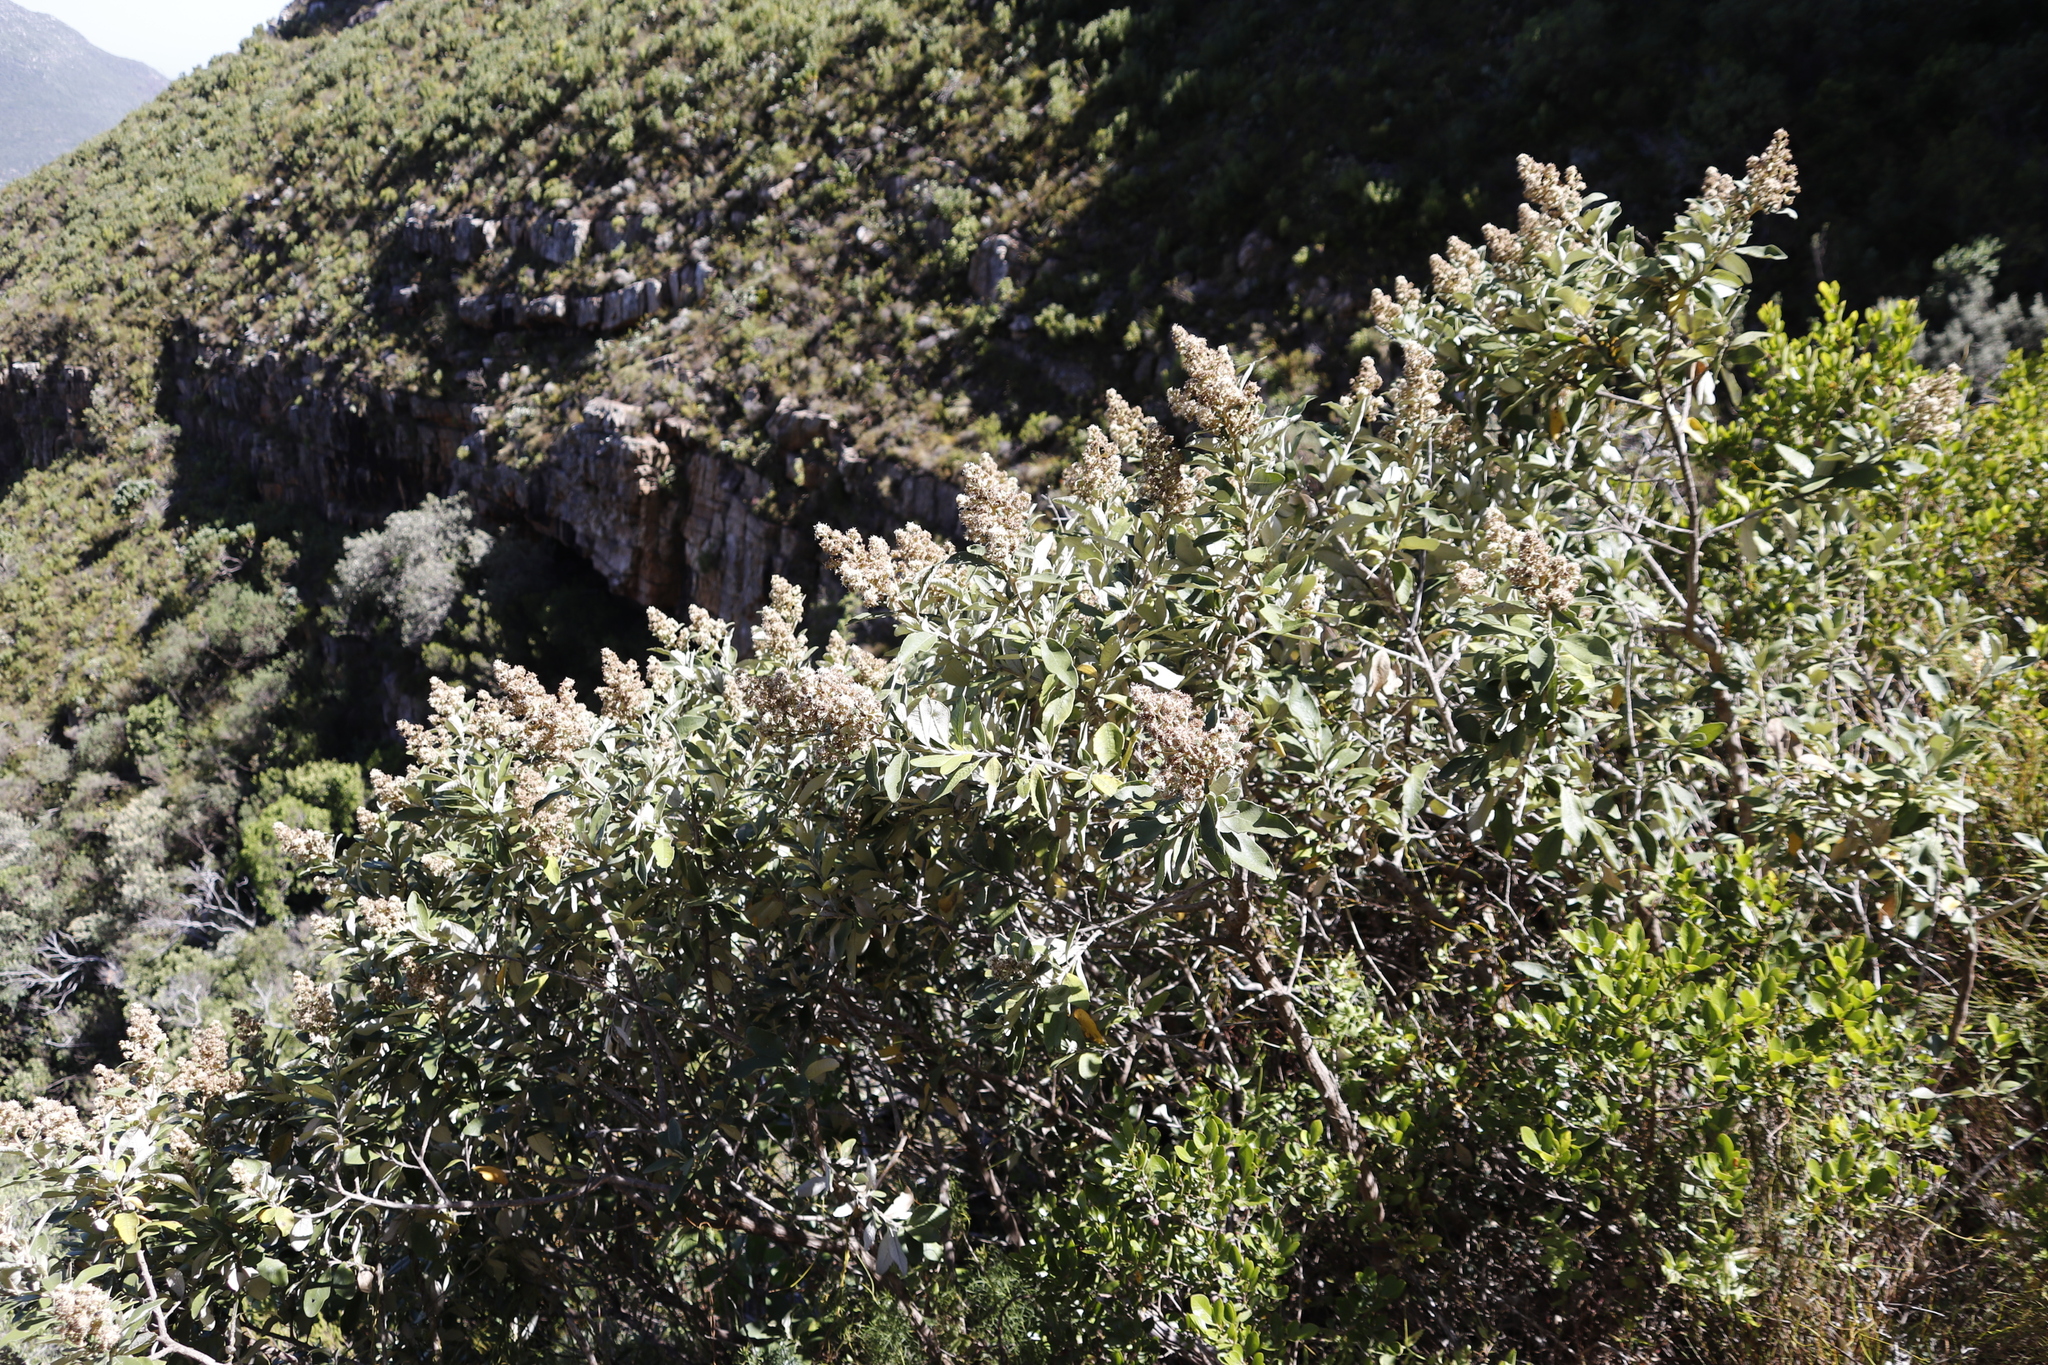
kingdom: Plantae
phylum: Tracheophyta
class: Magnoliopsida
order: Asterales
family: Asteraceae
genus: Tarchonanthus
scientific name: Tarchonanthus littoralis
